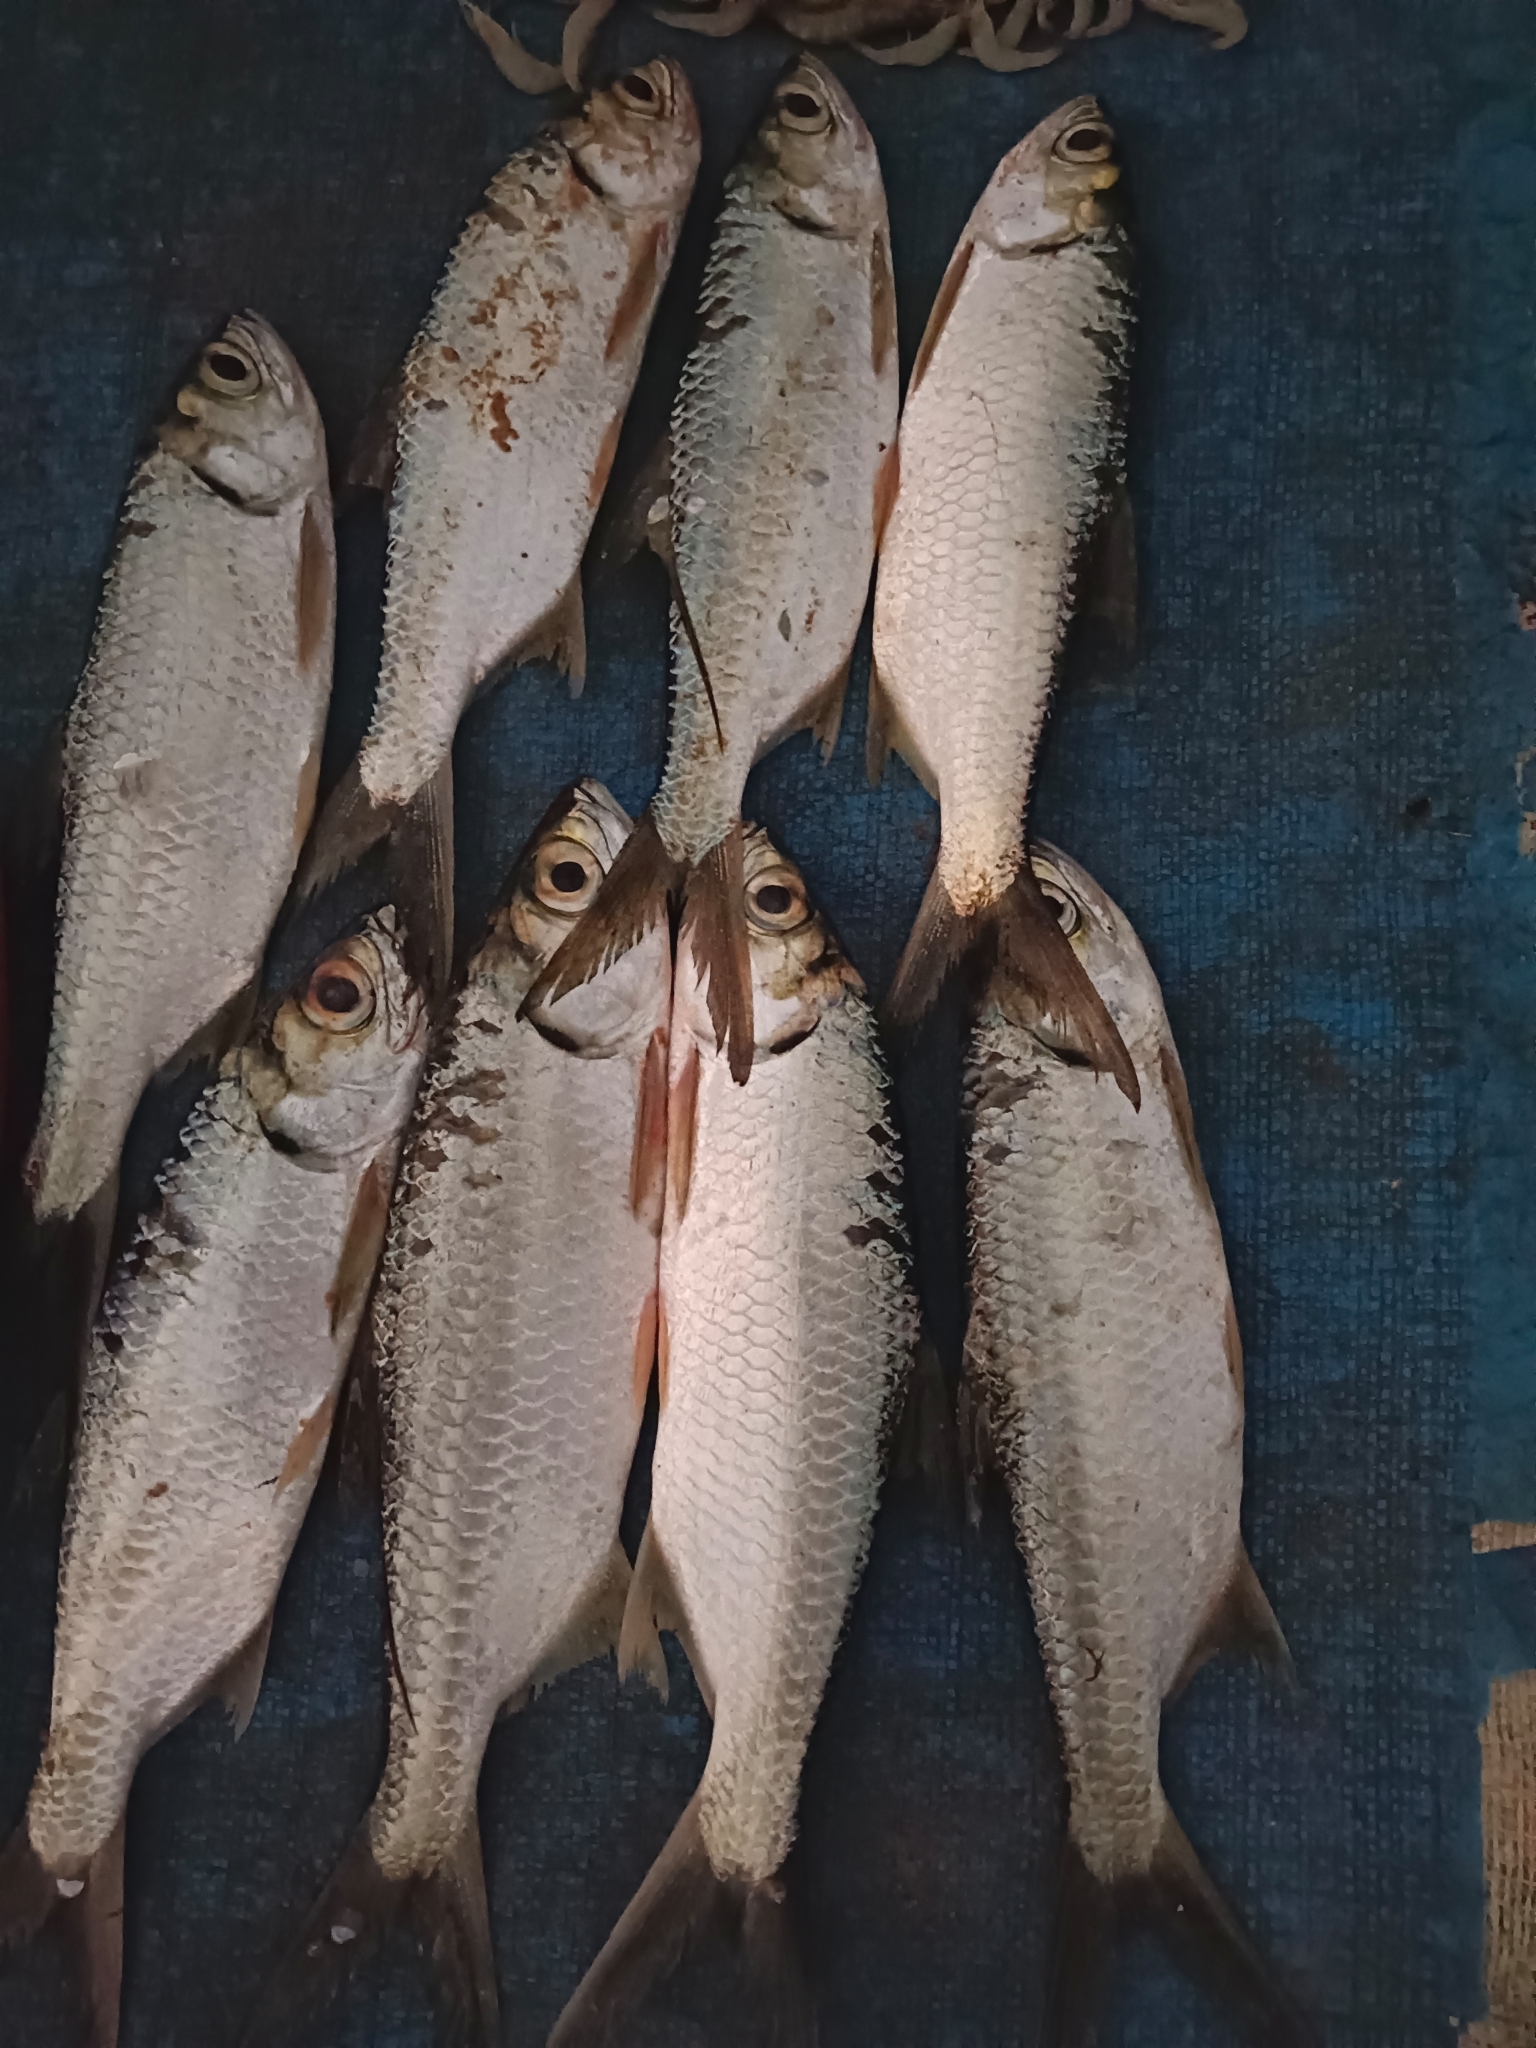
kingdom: Animalia
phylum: Chordata
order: Elopiformes
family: Megalopidae
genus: Megalops
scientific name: Megalops cyprinoides
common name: Indo-pacific tarpon
